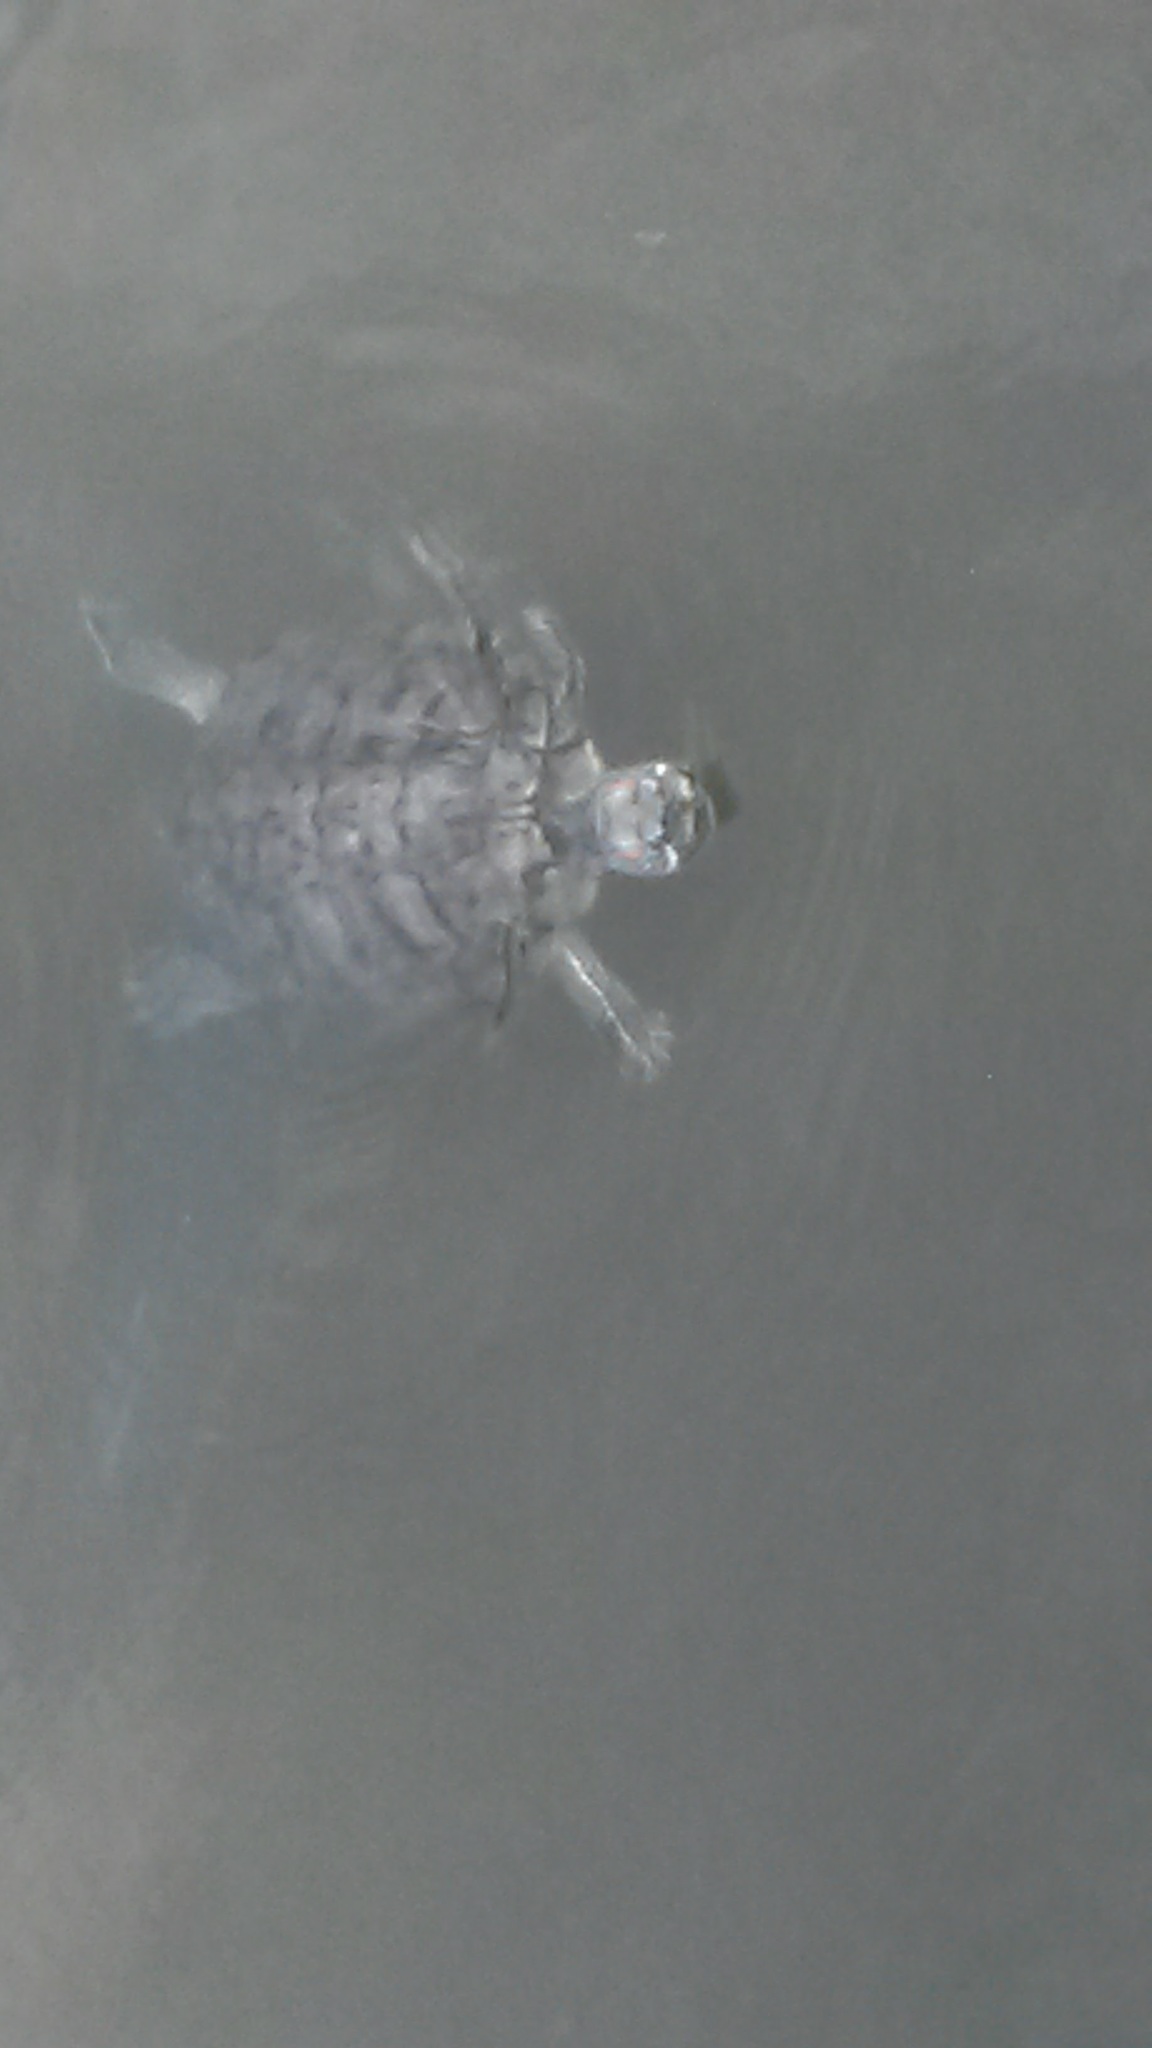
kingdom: Animalia
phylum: Chordata
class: Testudines
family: Emydidae
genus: Trachemys
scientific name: Trachemys scripta
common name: Slider
